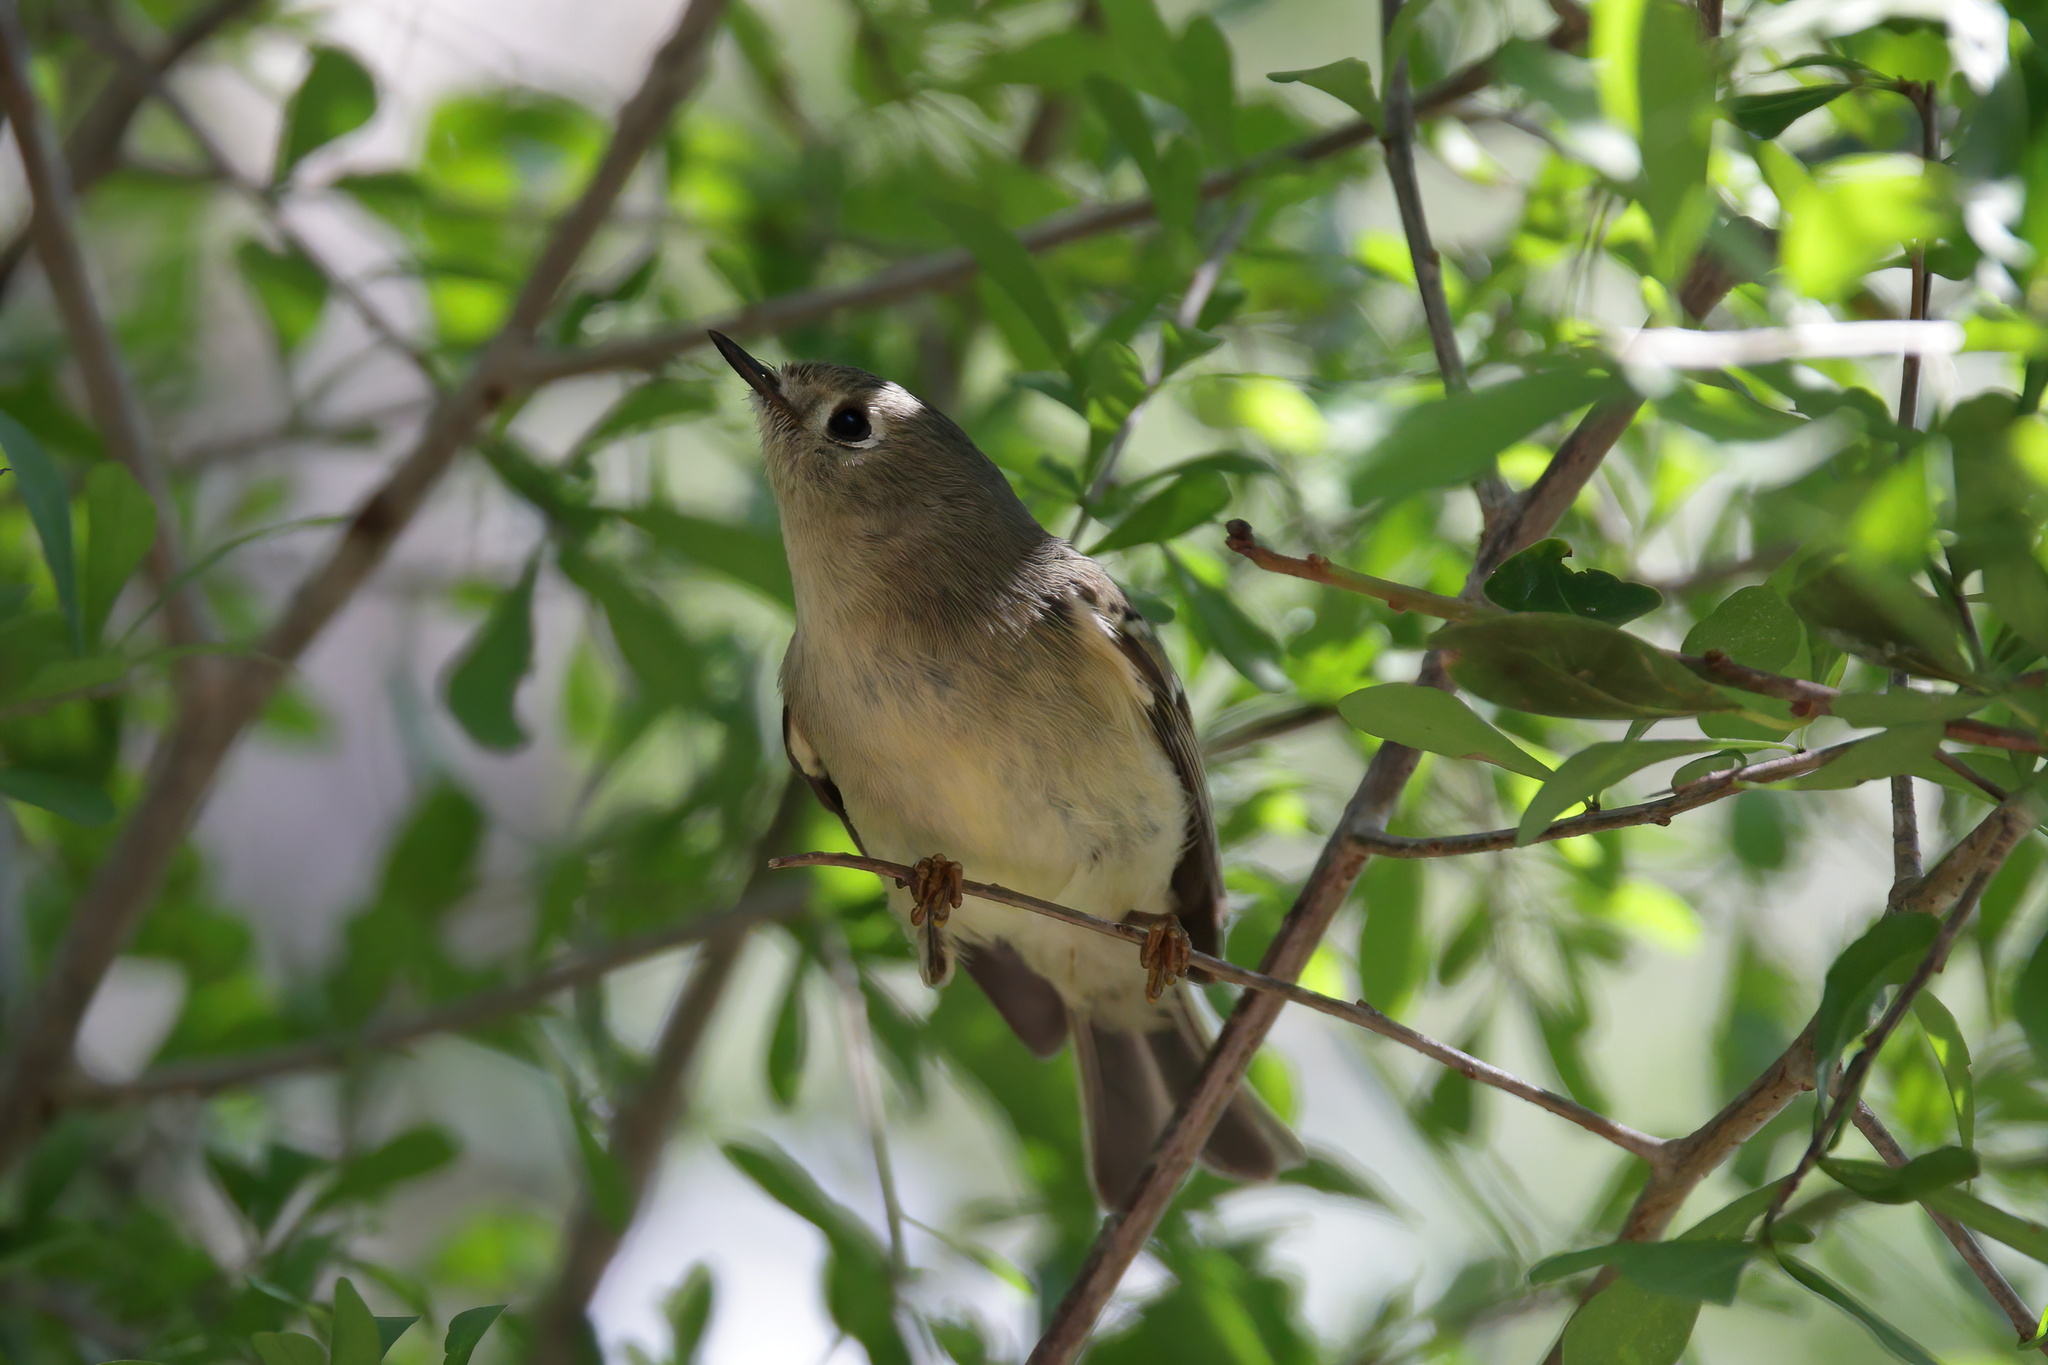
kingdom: Animalia
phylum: Chordata
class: Aves
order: Passeriformes
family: Regulidae
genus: Regulus
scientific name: Regulus calendula
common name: Ruby-crowned kinglet
